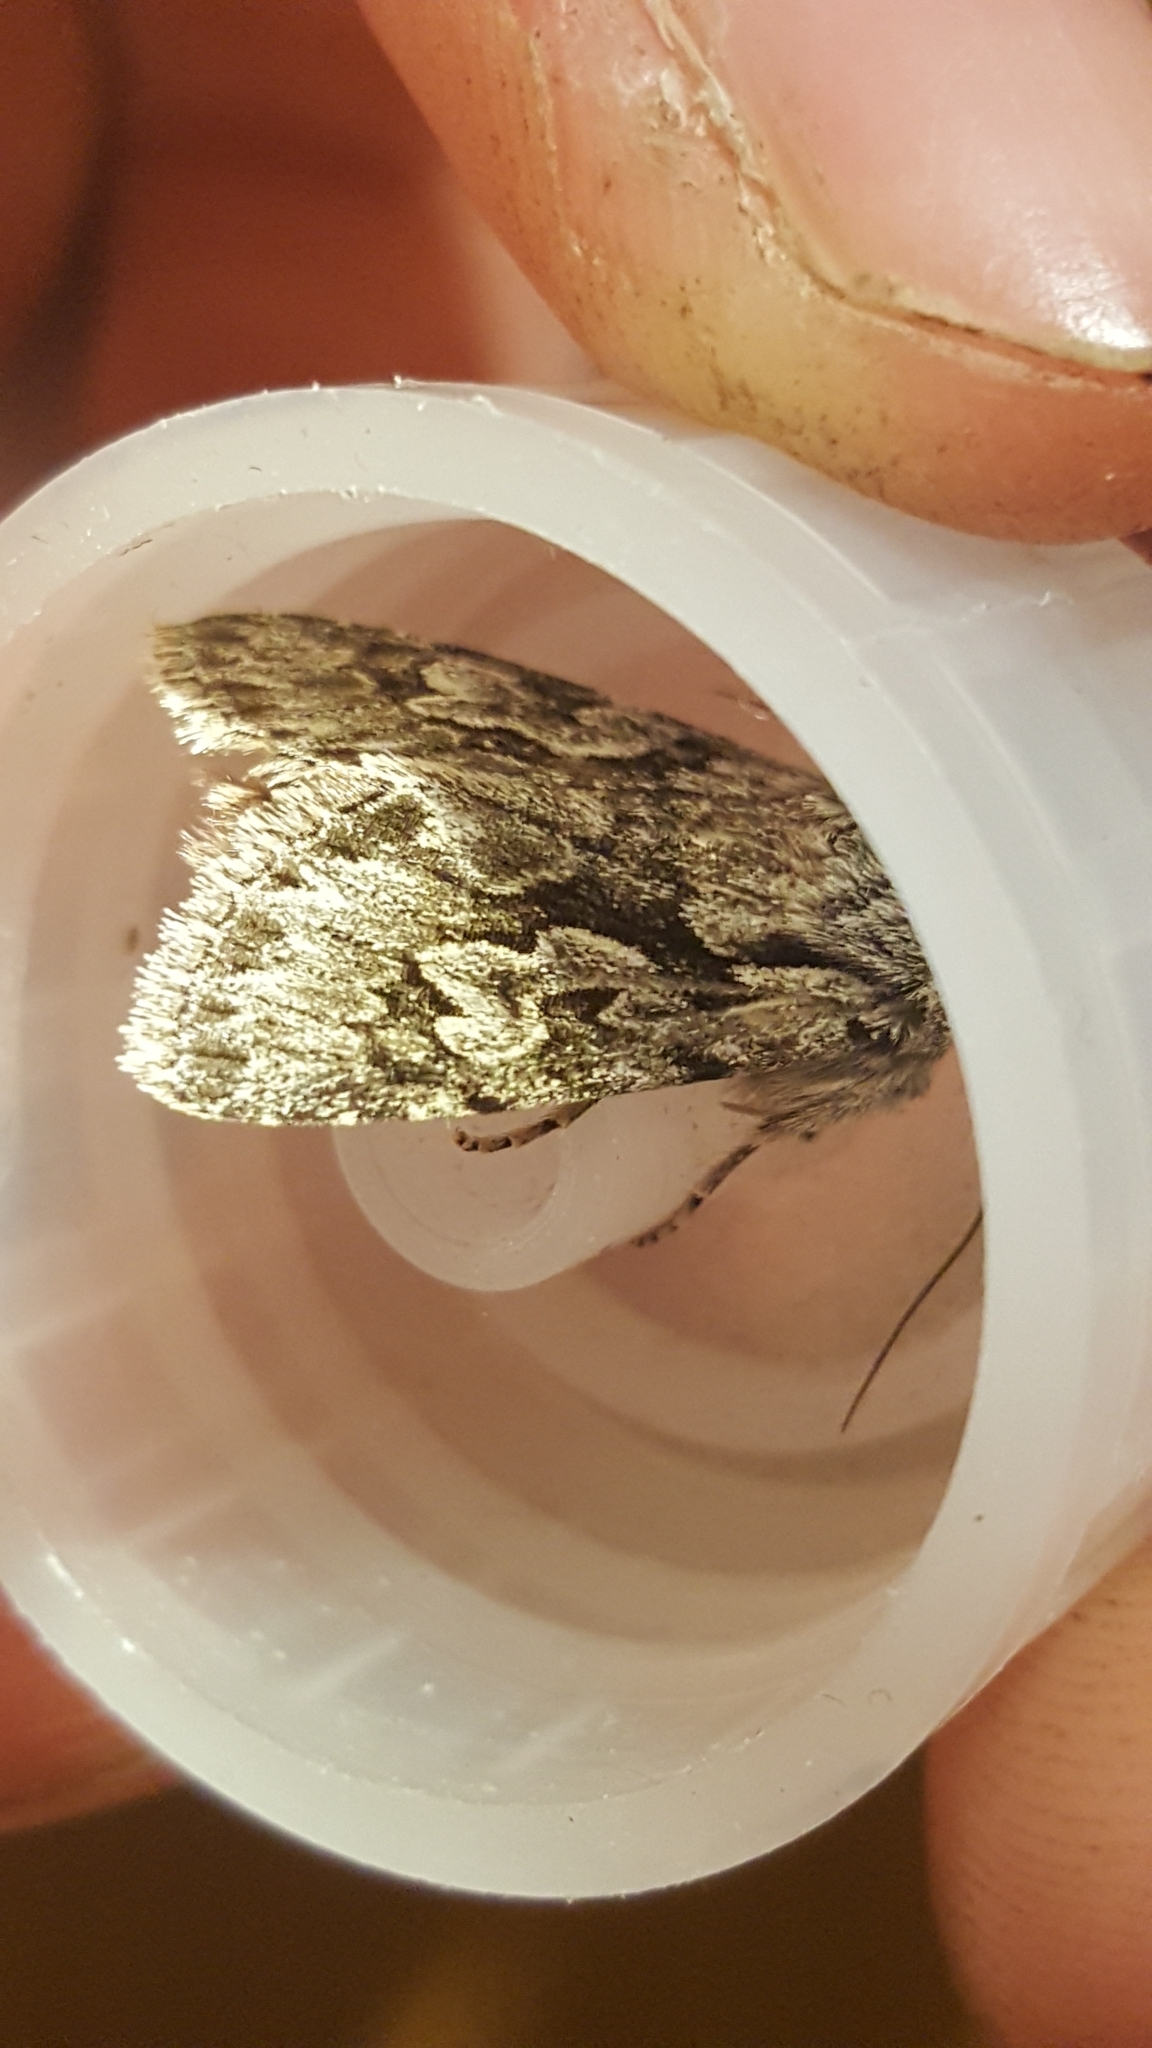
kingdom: Animalia
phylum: Arthropoda
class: Insecta
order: Lepidoptera
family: Noctuidae
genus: Xylocampa
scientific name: Xylocampa areola
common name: Early grey
